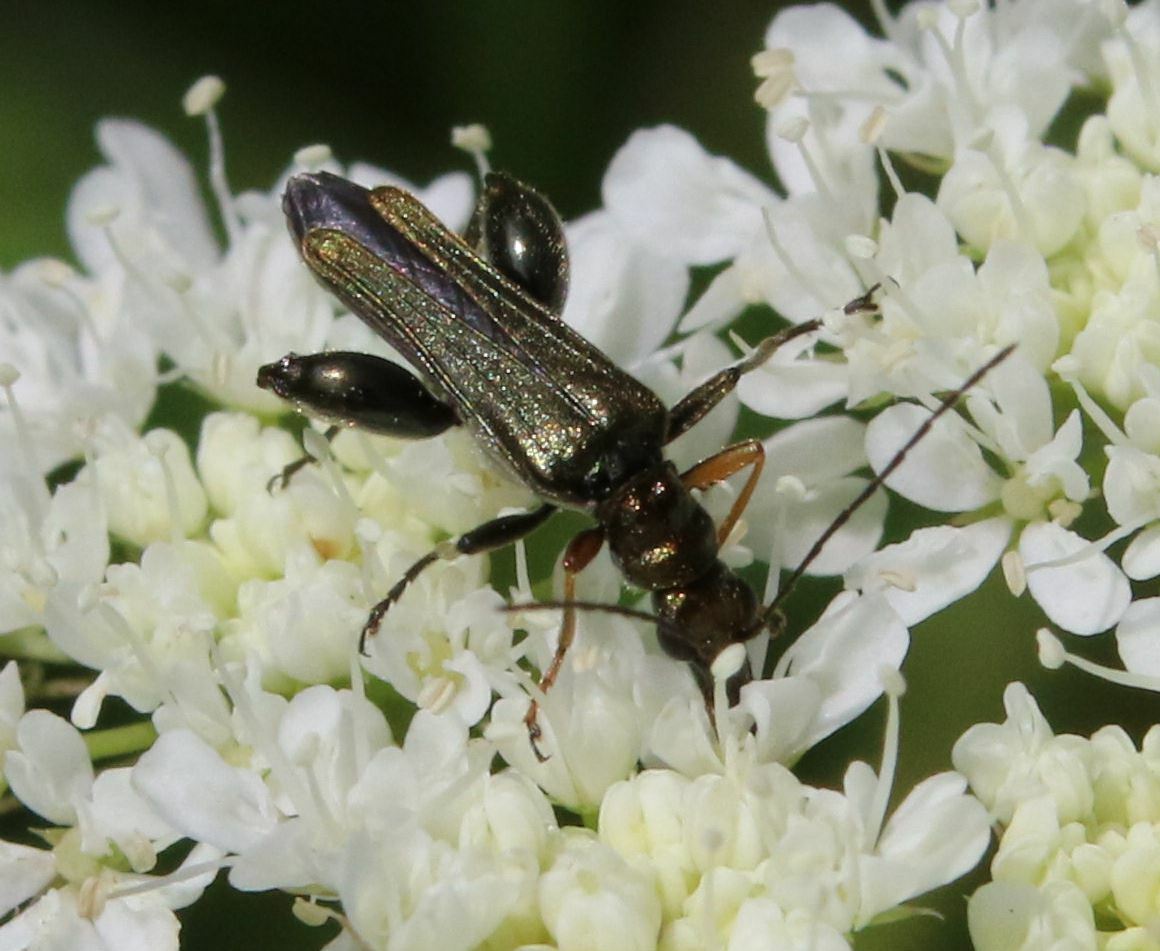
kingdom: Animalia
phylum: Arthropoda
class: Insecta
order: Coleoptera
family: Oedemeridae
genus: Oedemera
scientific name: Oedemera flavipes
